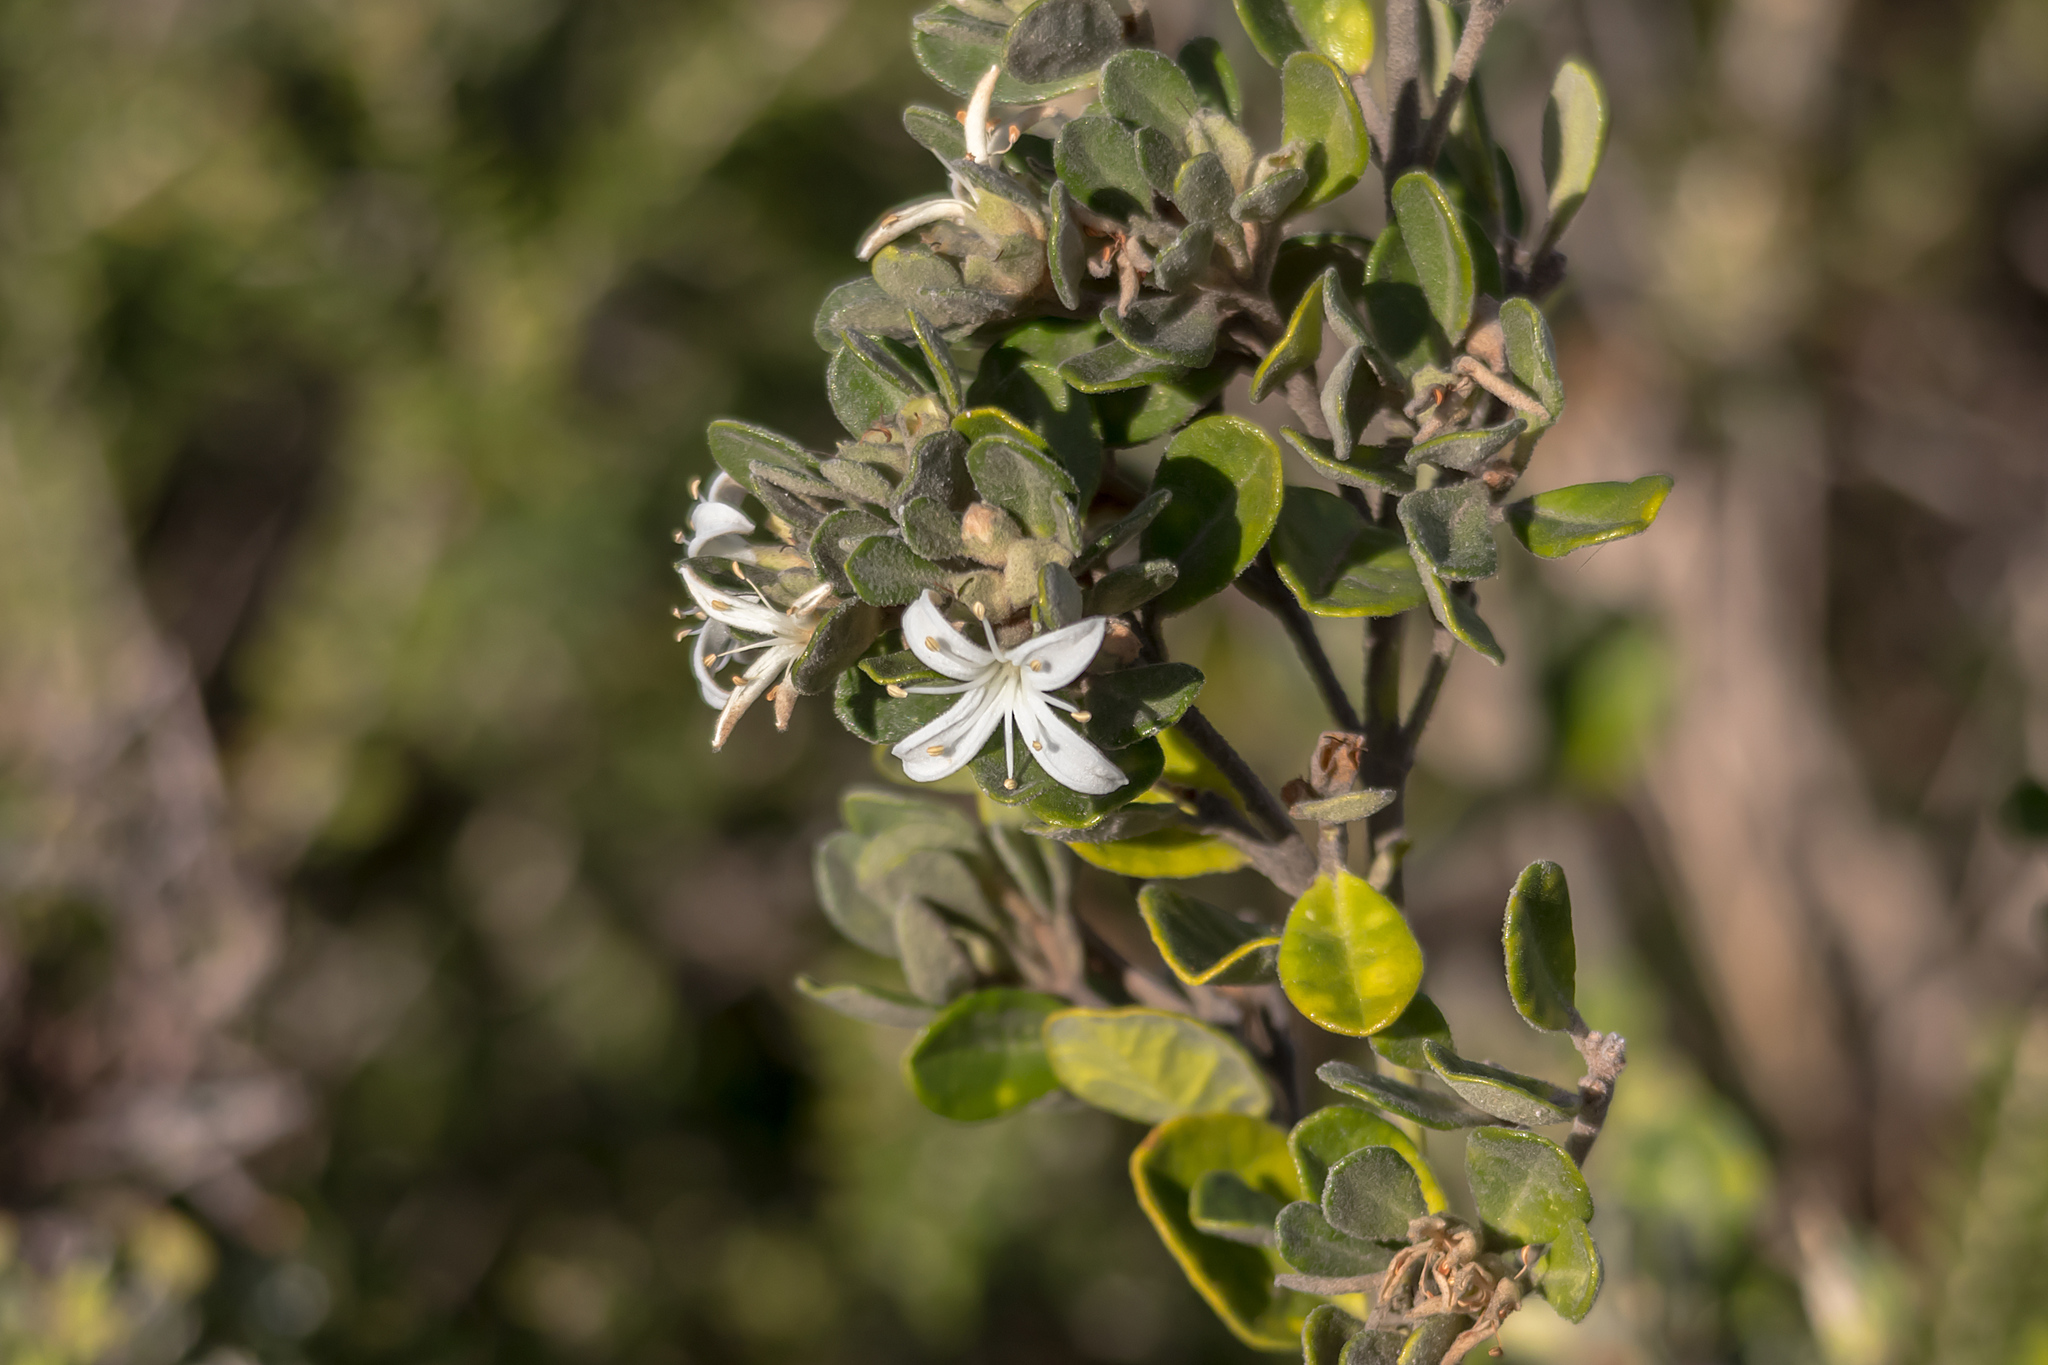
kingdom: Plantae
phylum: Tracheophyta
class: Magnoliopsida
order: Sapindales
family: Rutaceae
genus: Correa
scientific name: Correa alba
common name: White correa
